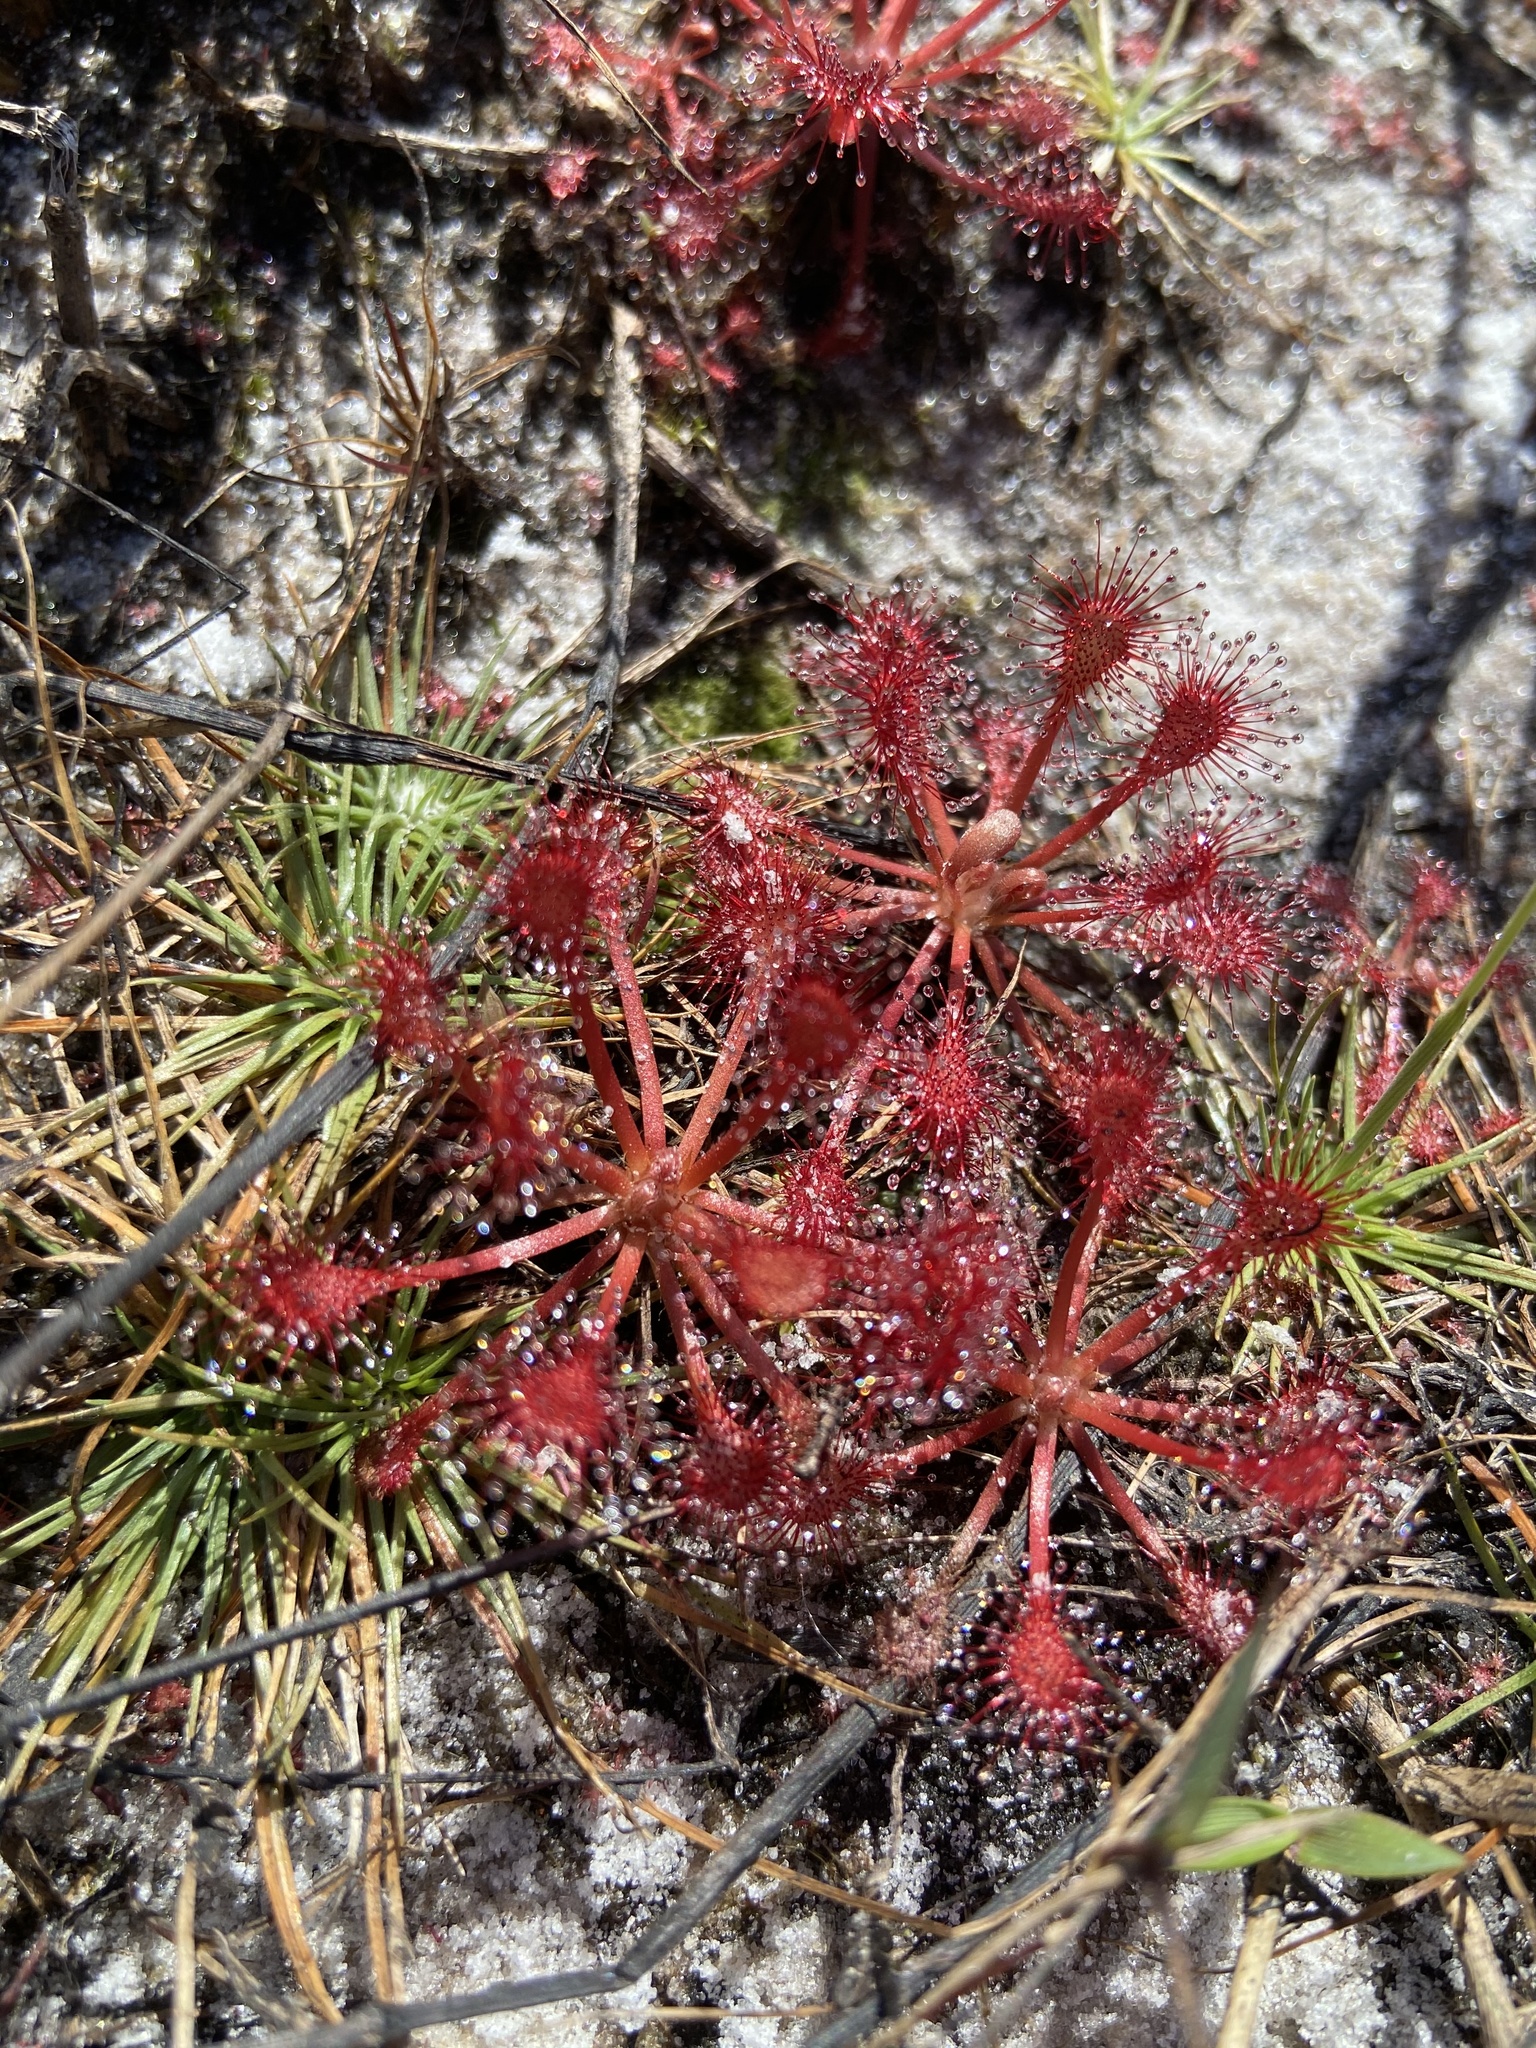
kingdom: Plantae
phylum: Tracheophyta
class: Magnoliopsida
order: Caryophyllales
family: Droseraceae
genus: Drosera
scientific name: Drosera capillaris
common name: Pink sundew
